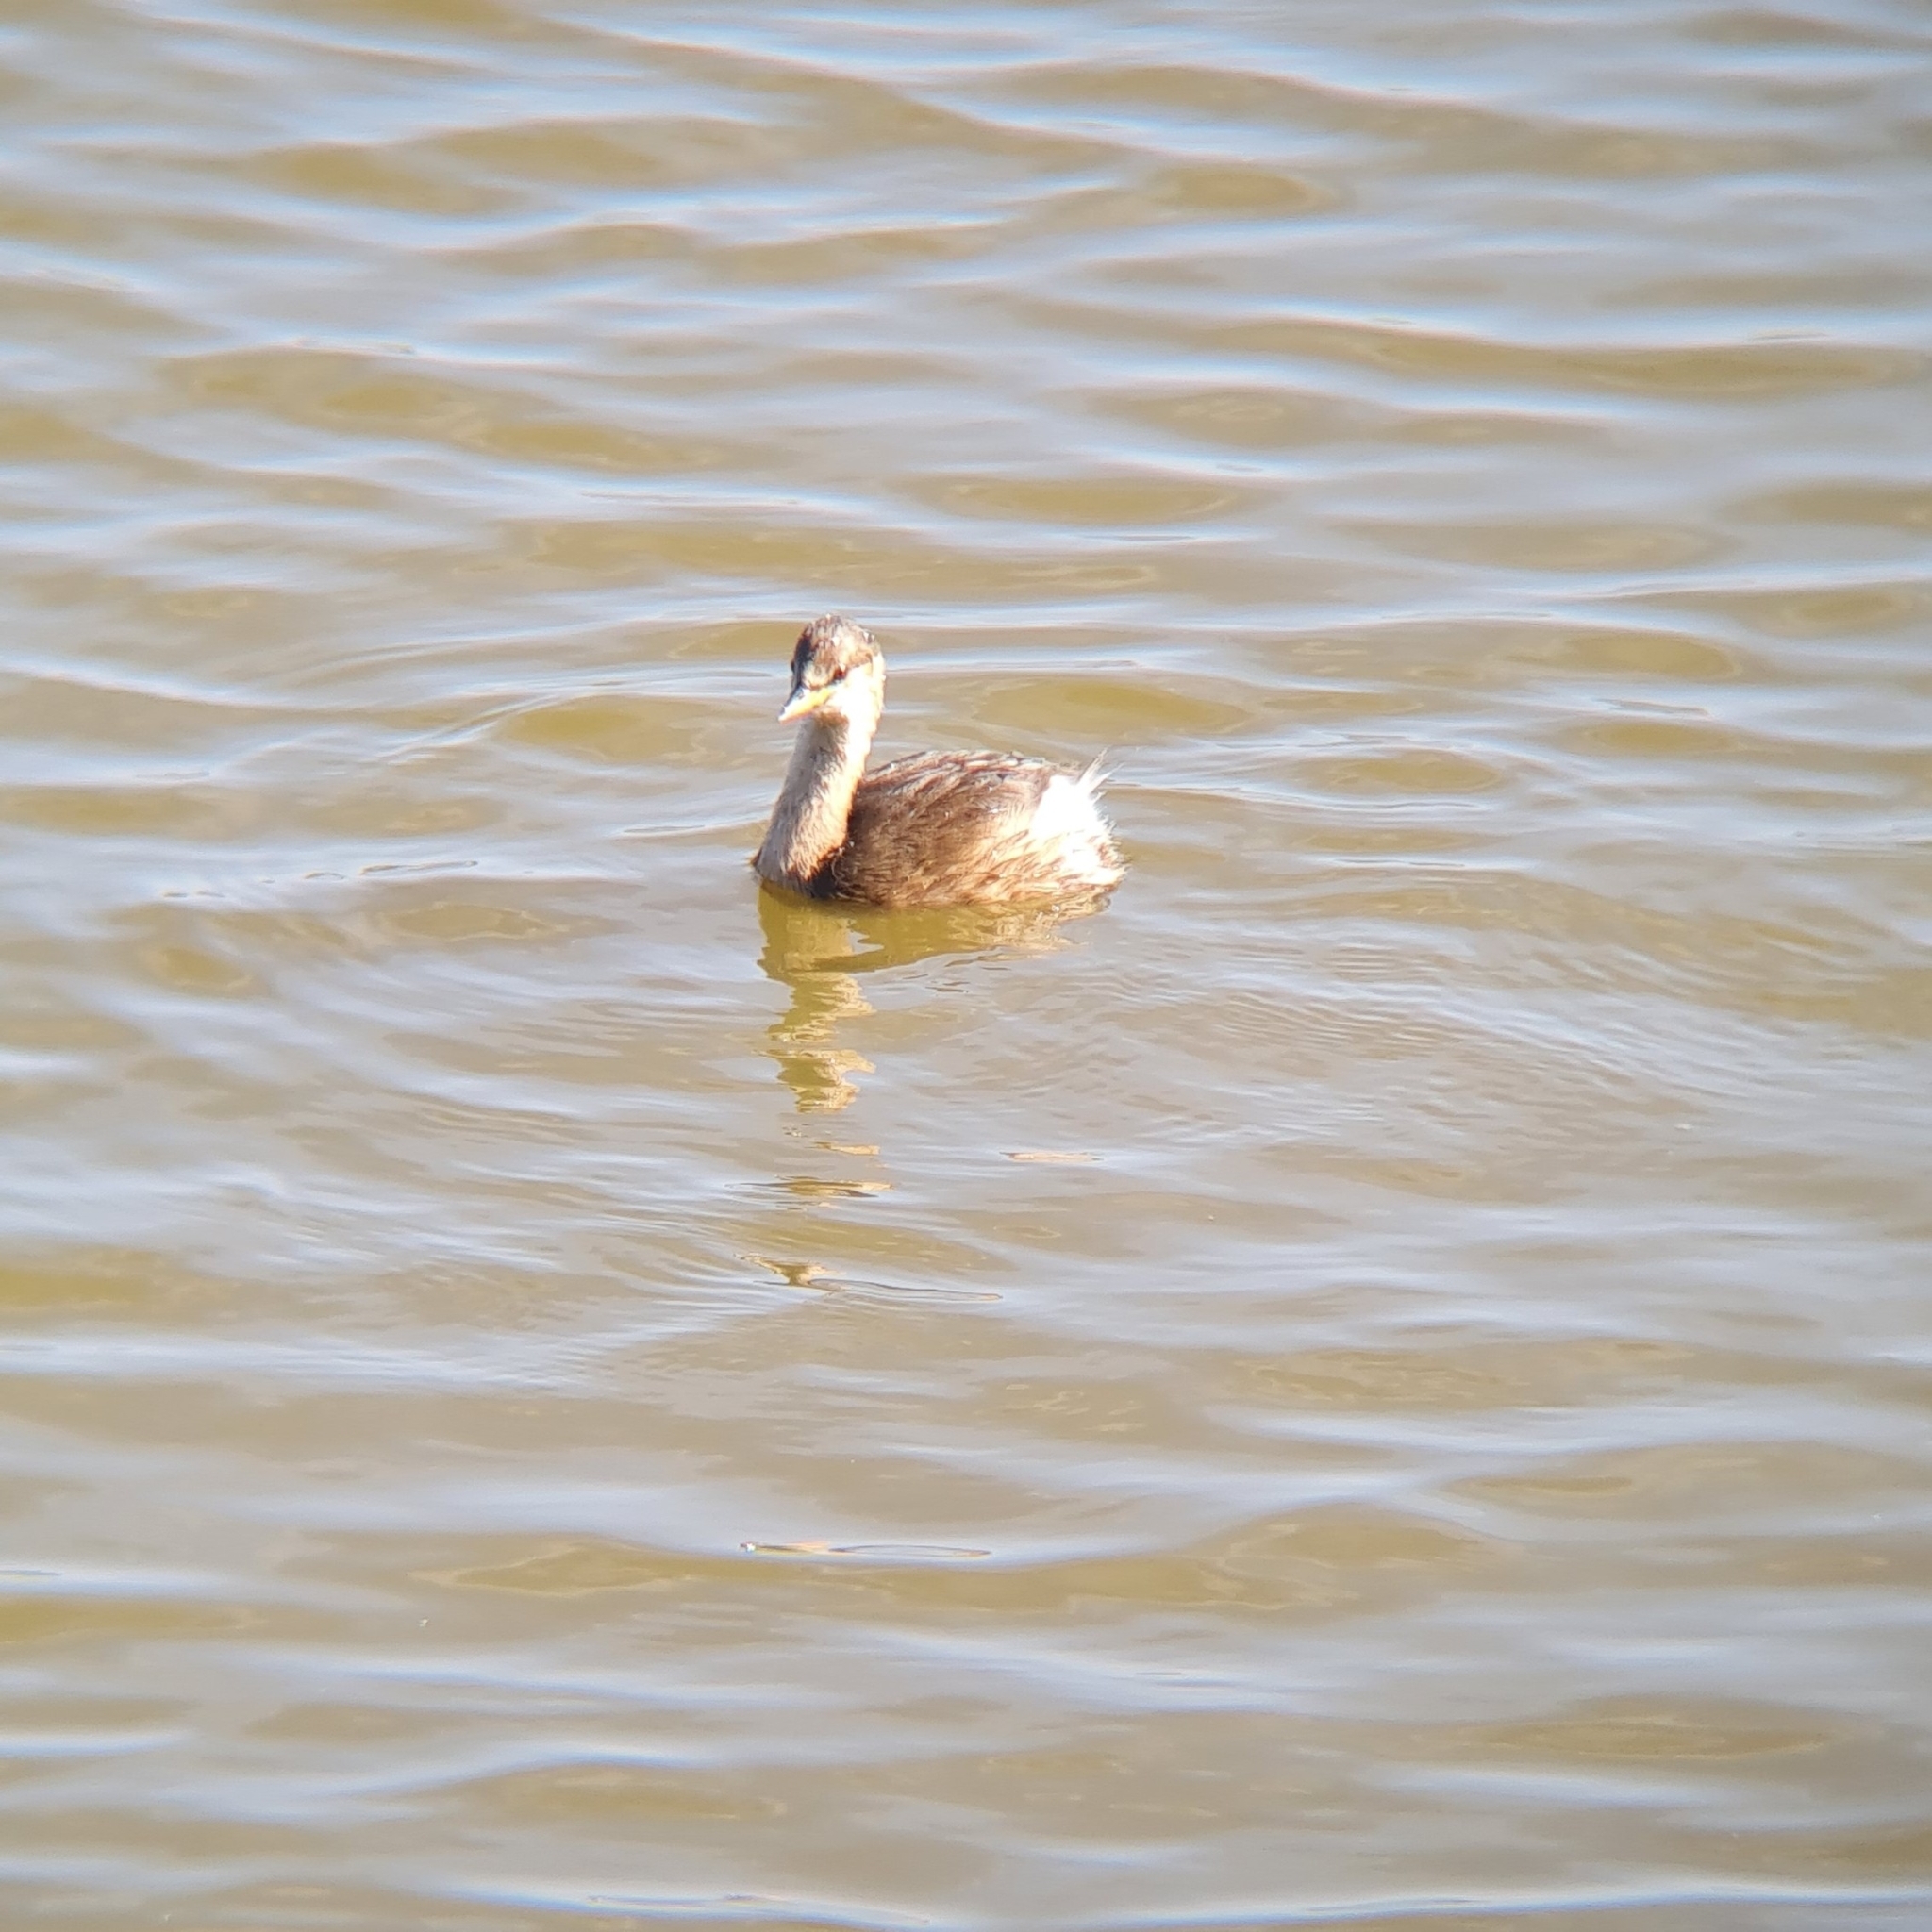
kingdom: Animalia
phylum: Chordata
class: Aves
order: Podicipediformes
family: Podicipedidae
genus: Tachybaptus
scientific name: Tachybaptus ruficollis
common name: Little grebe
